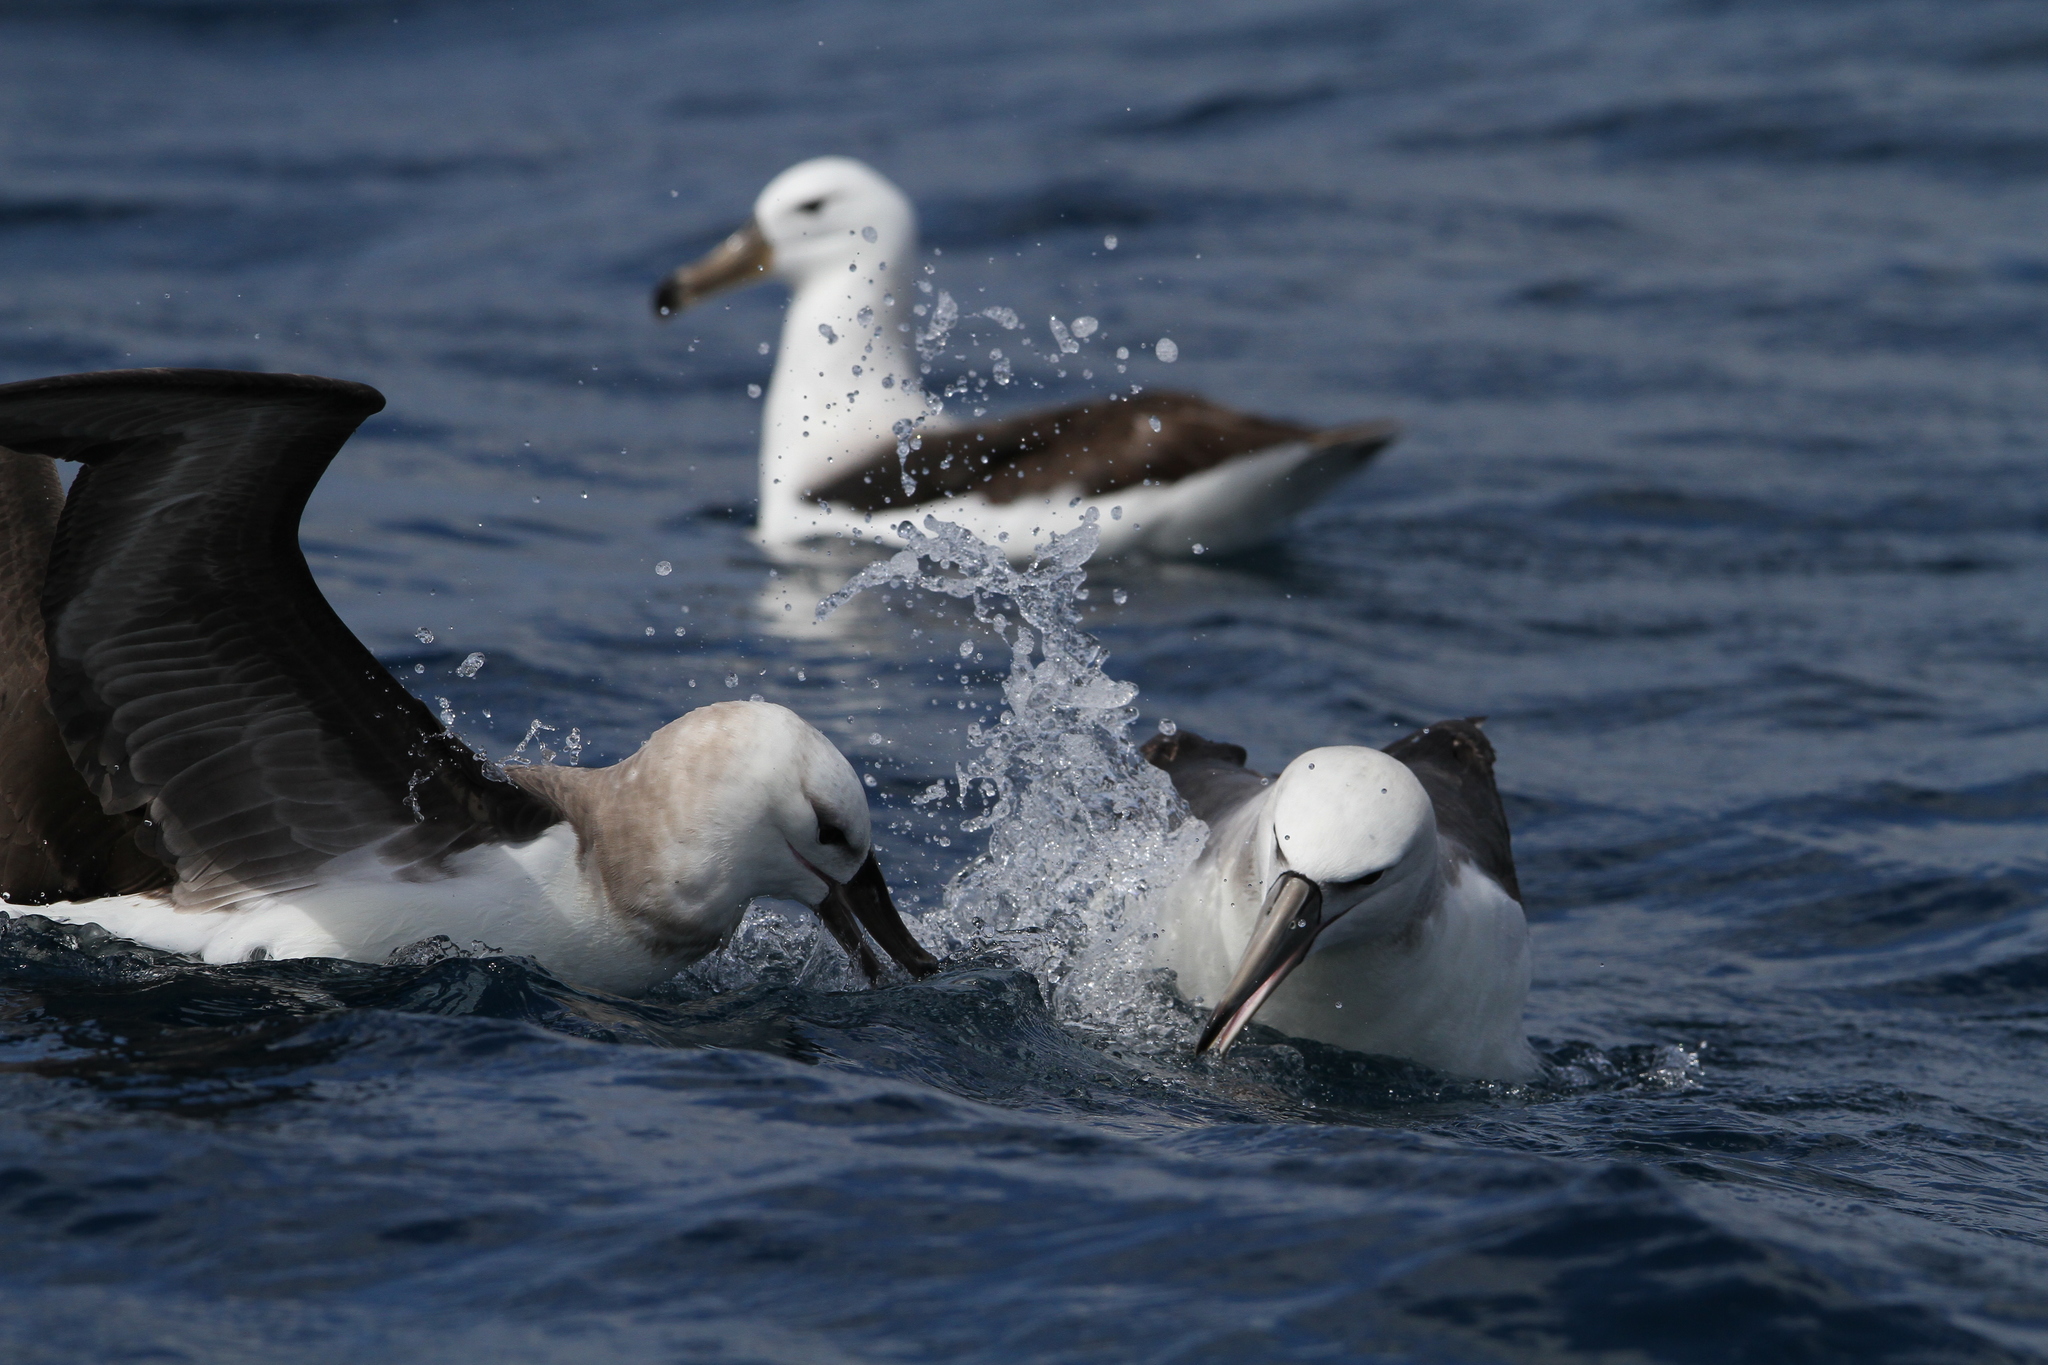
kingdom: Animalia
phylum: Chordata
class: Aves
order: Procellariiformes
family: Diomedeidae
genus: Thalassarche
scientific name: Thalassarche cauta
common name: Shy albatross
